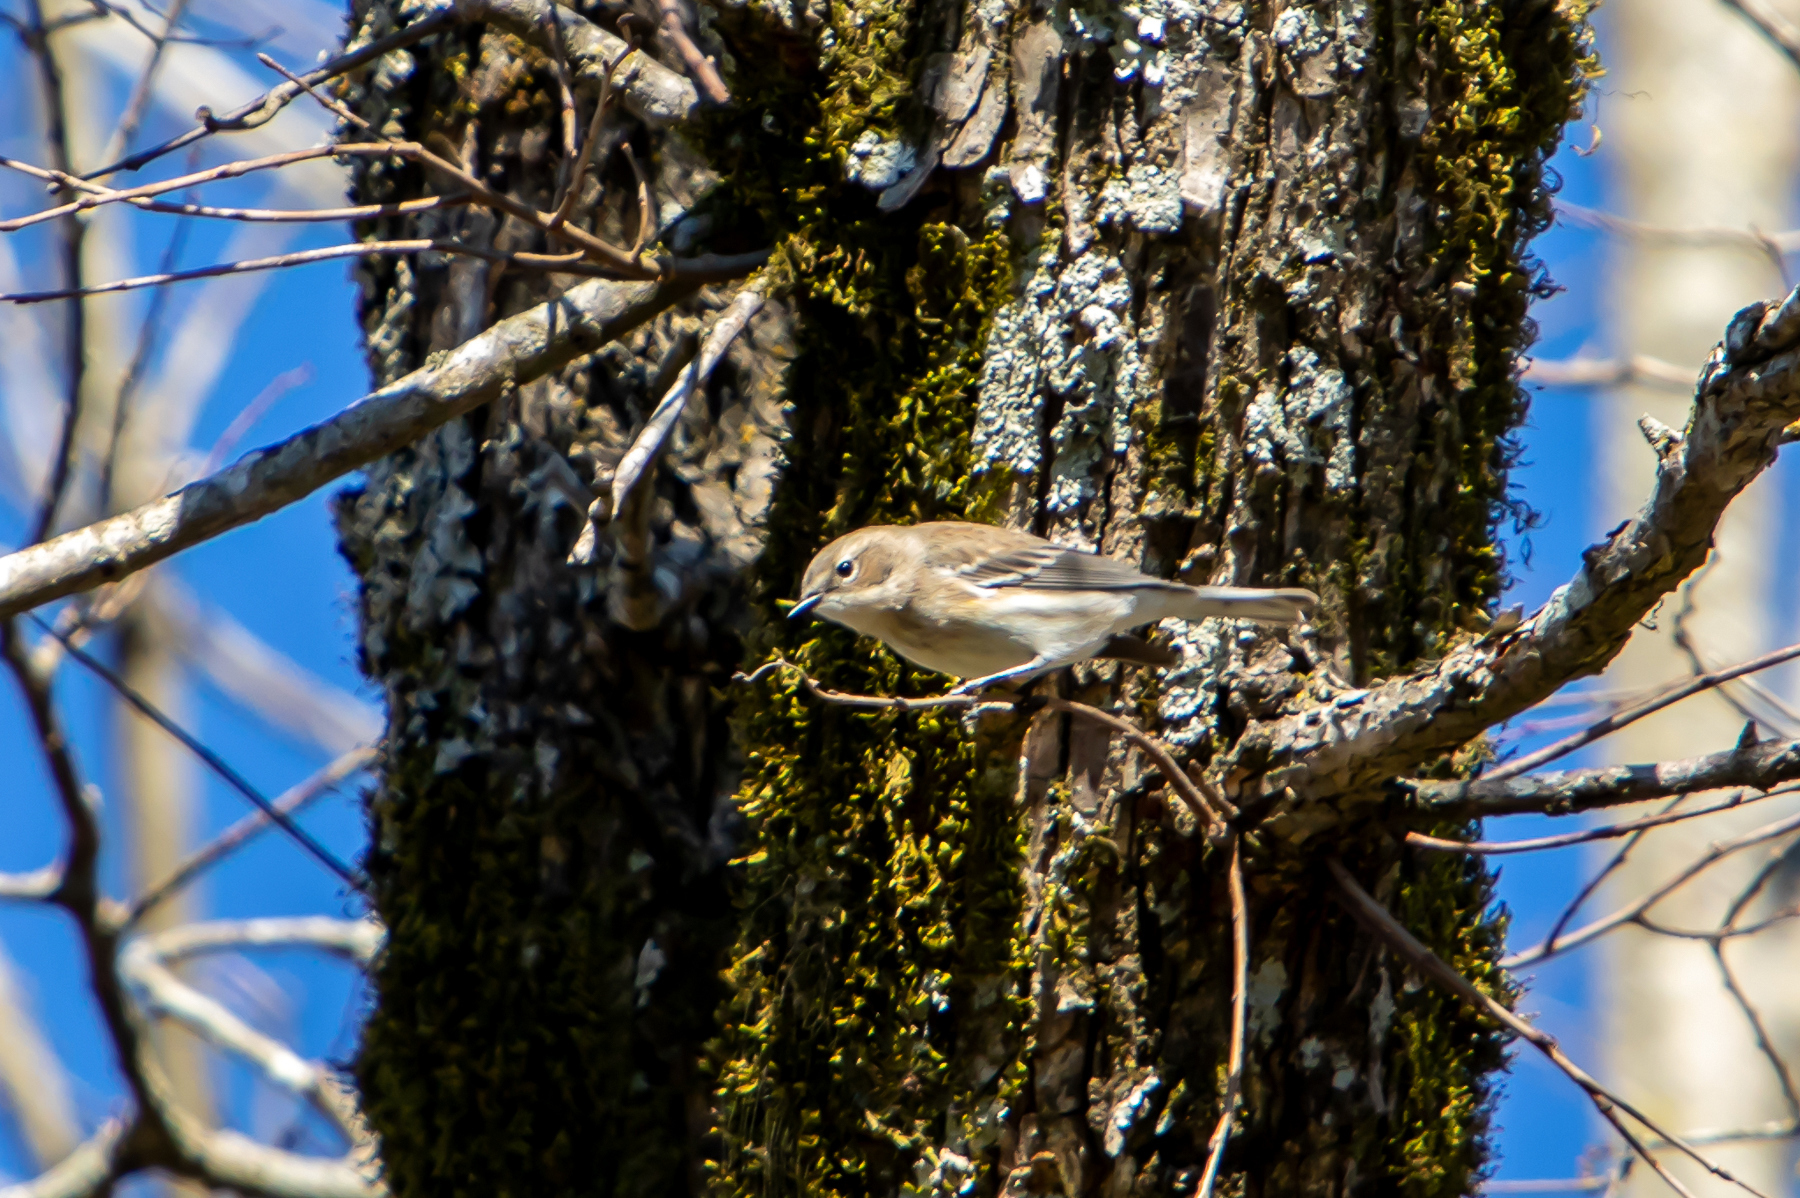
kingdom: Animalia
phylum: Chordata
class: Aves
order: Passeriformes
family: Parulidae
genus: Setophaga
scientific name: Setophaga coronata
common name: Myrtle warbler
